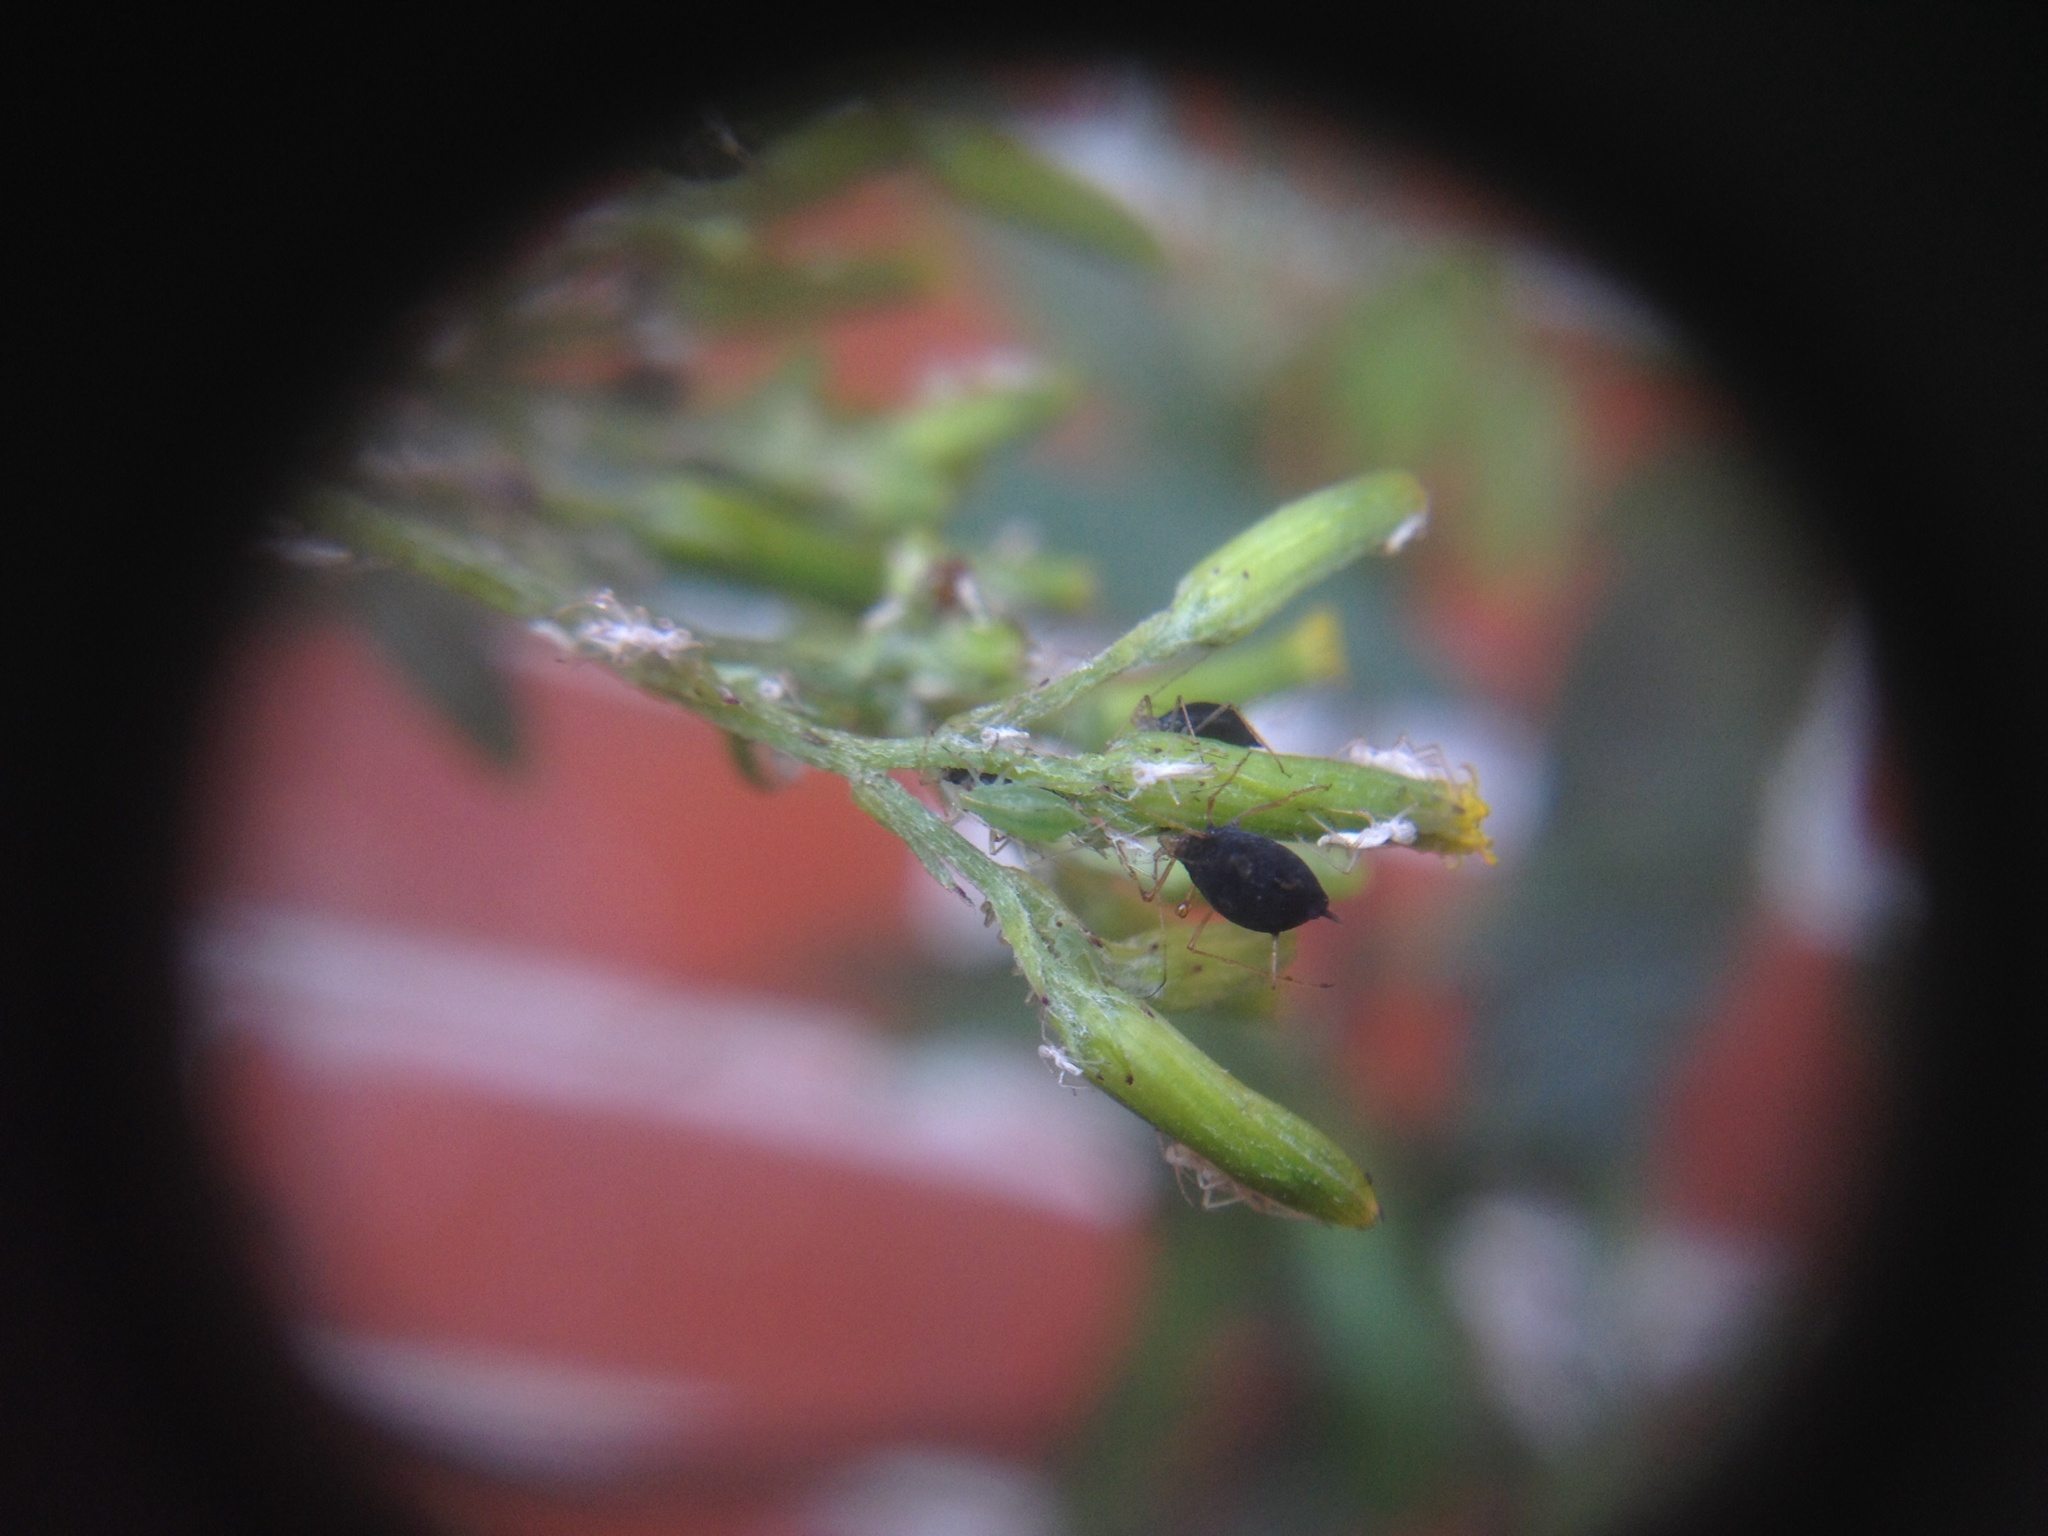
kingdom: Animalia
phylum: Arthropoda
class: Insecta
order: Hemiptera
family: Aphididae
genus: Macrosiphum
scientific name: Macrosiphum euphorbiae
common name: Potato aphid
